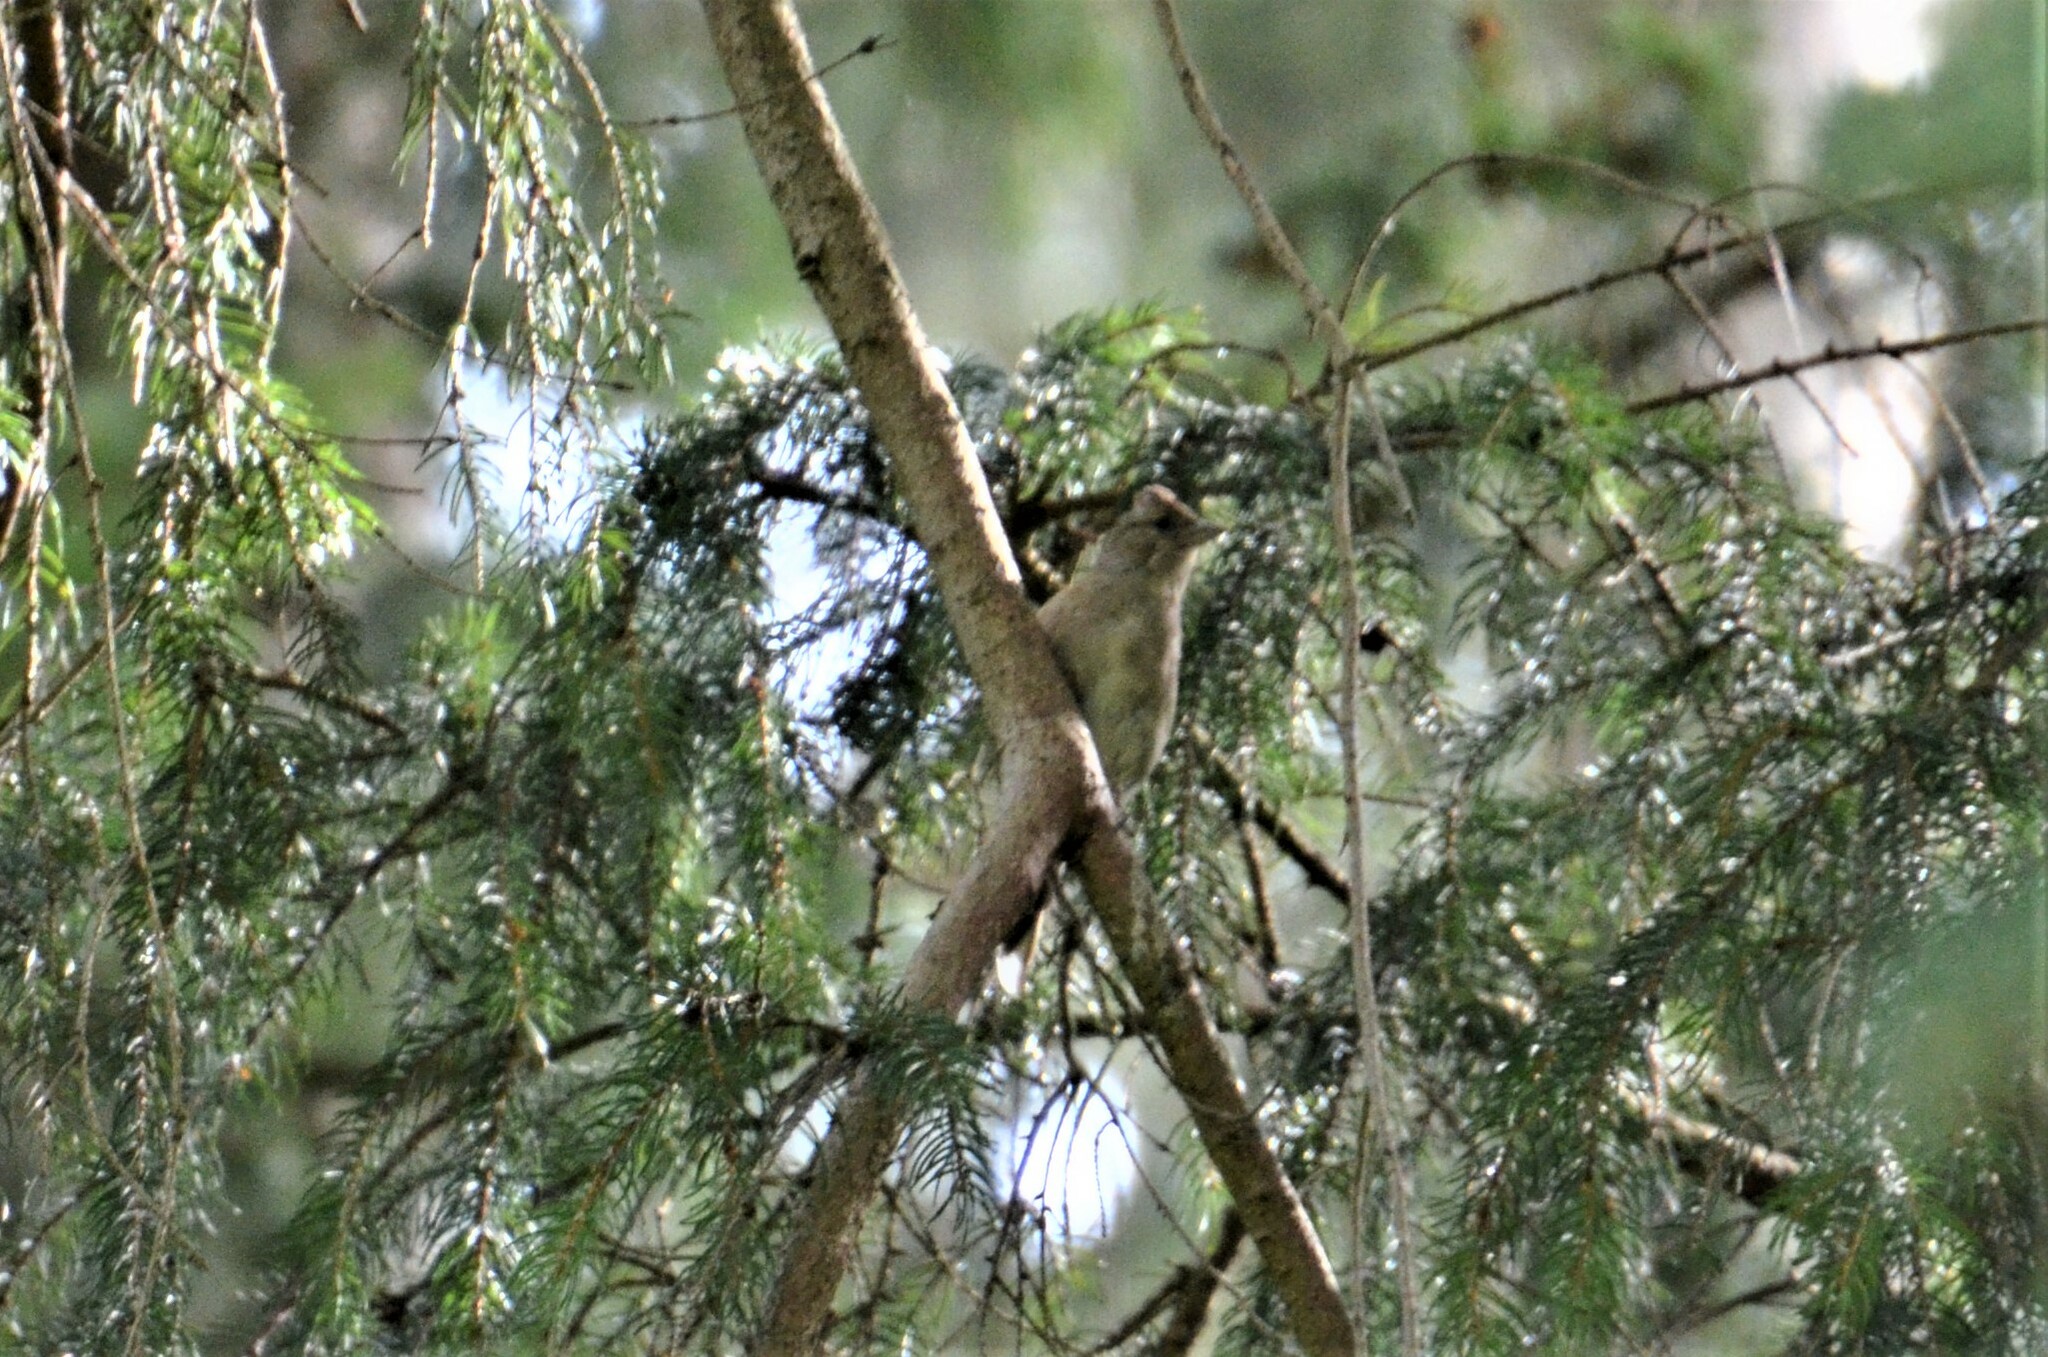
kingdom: Animalia
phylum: Chordata
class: Aves
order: Passeriformes
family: Fringillidae
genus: Fringilla
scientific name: Fringilla coelebs
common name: Common chaffinch
